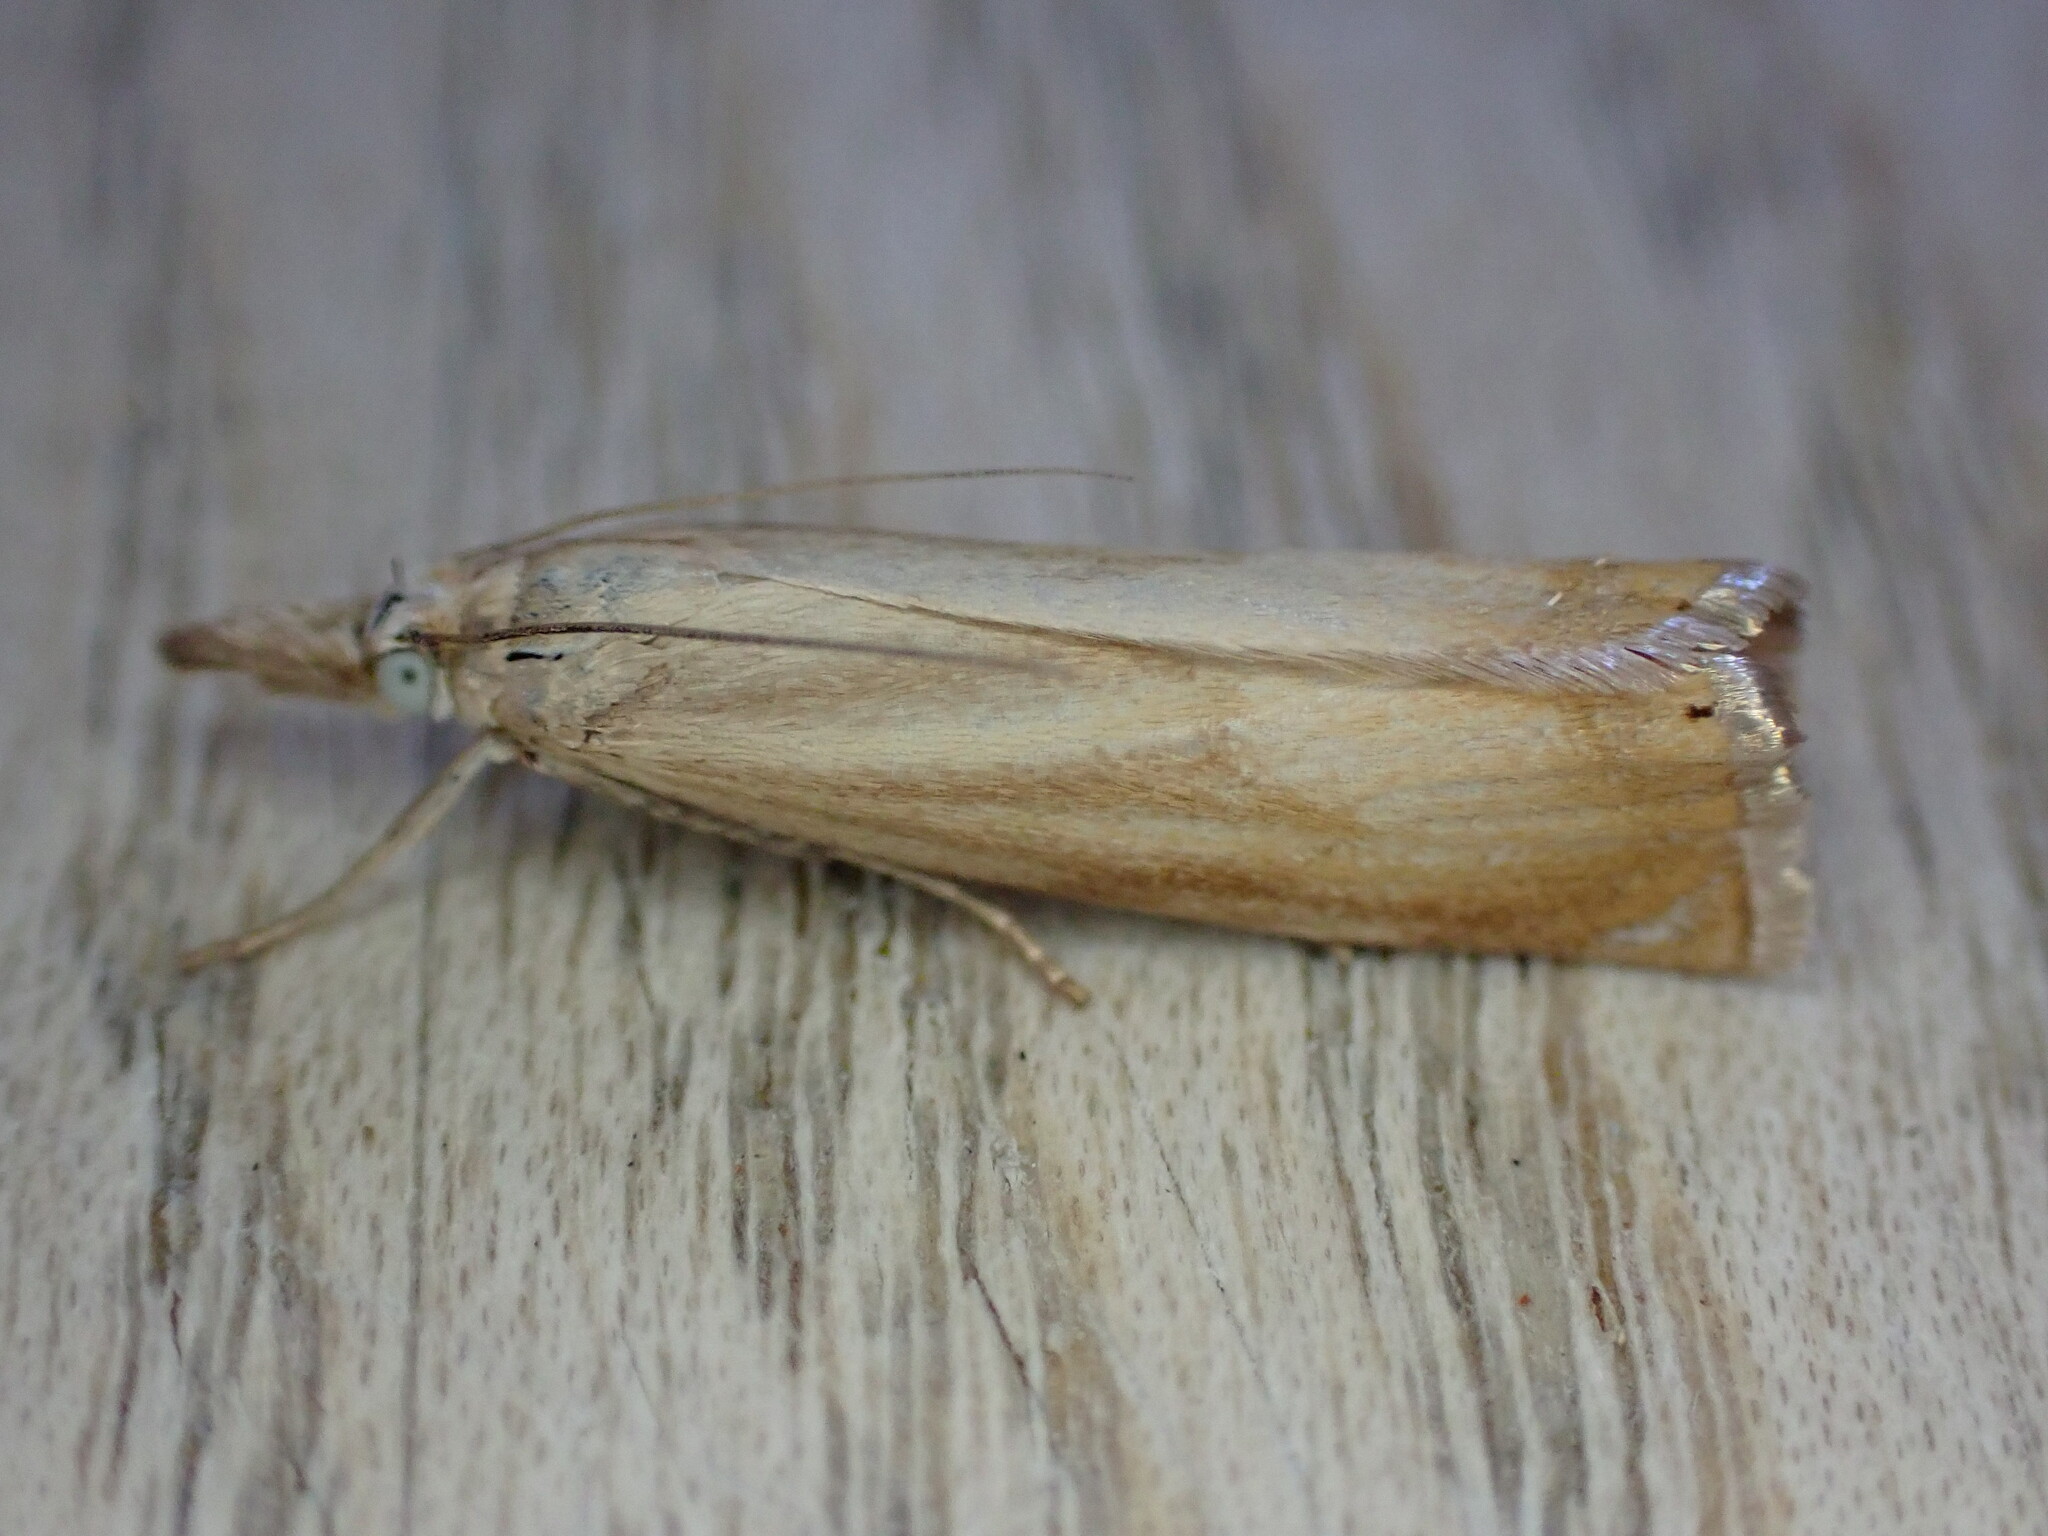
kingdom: Animalia
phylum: Arthropoda
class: Insecta
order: Lepidoptera
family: Crambidae
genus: Chrysoteuchia
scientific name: Chrysoteuchia culmella
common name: Garden grass-veneer
